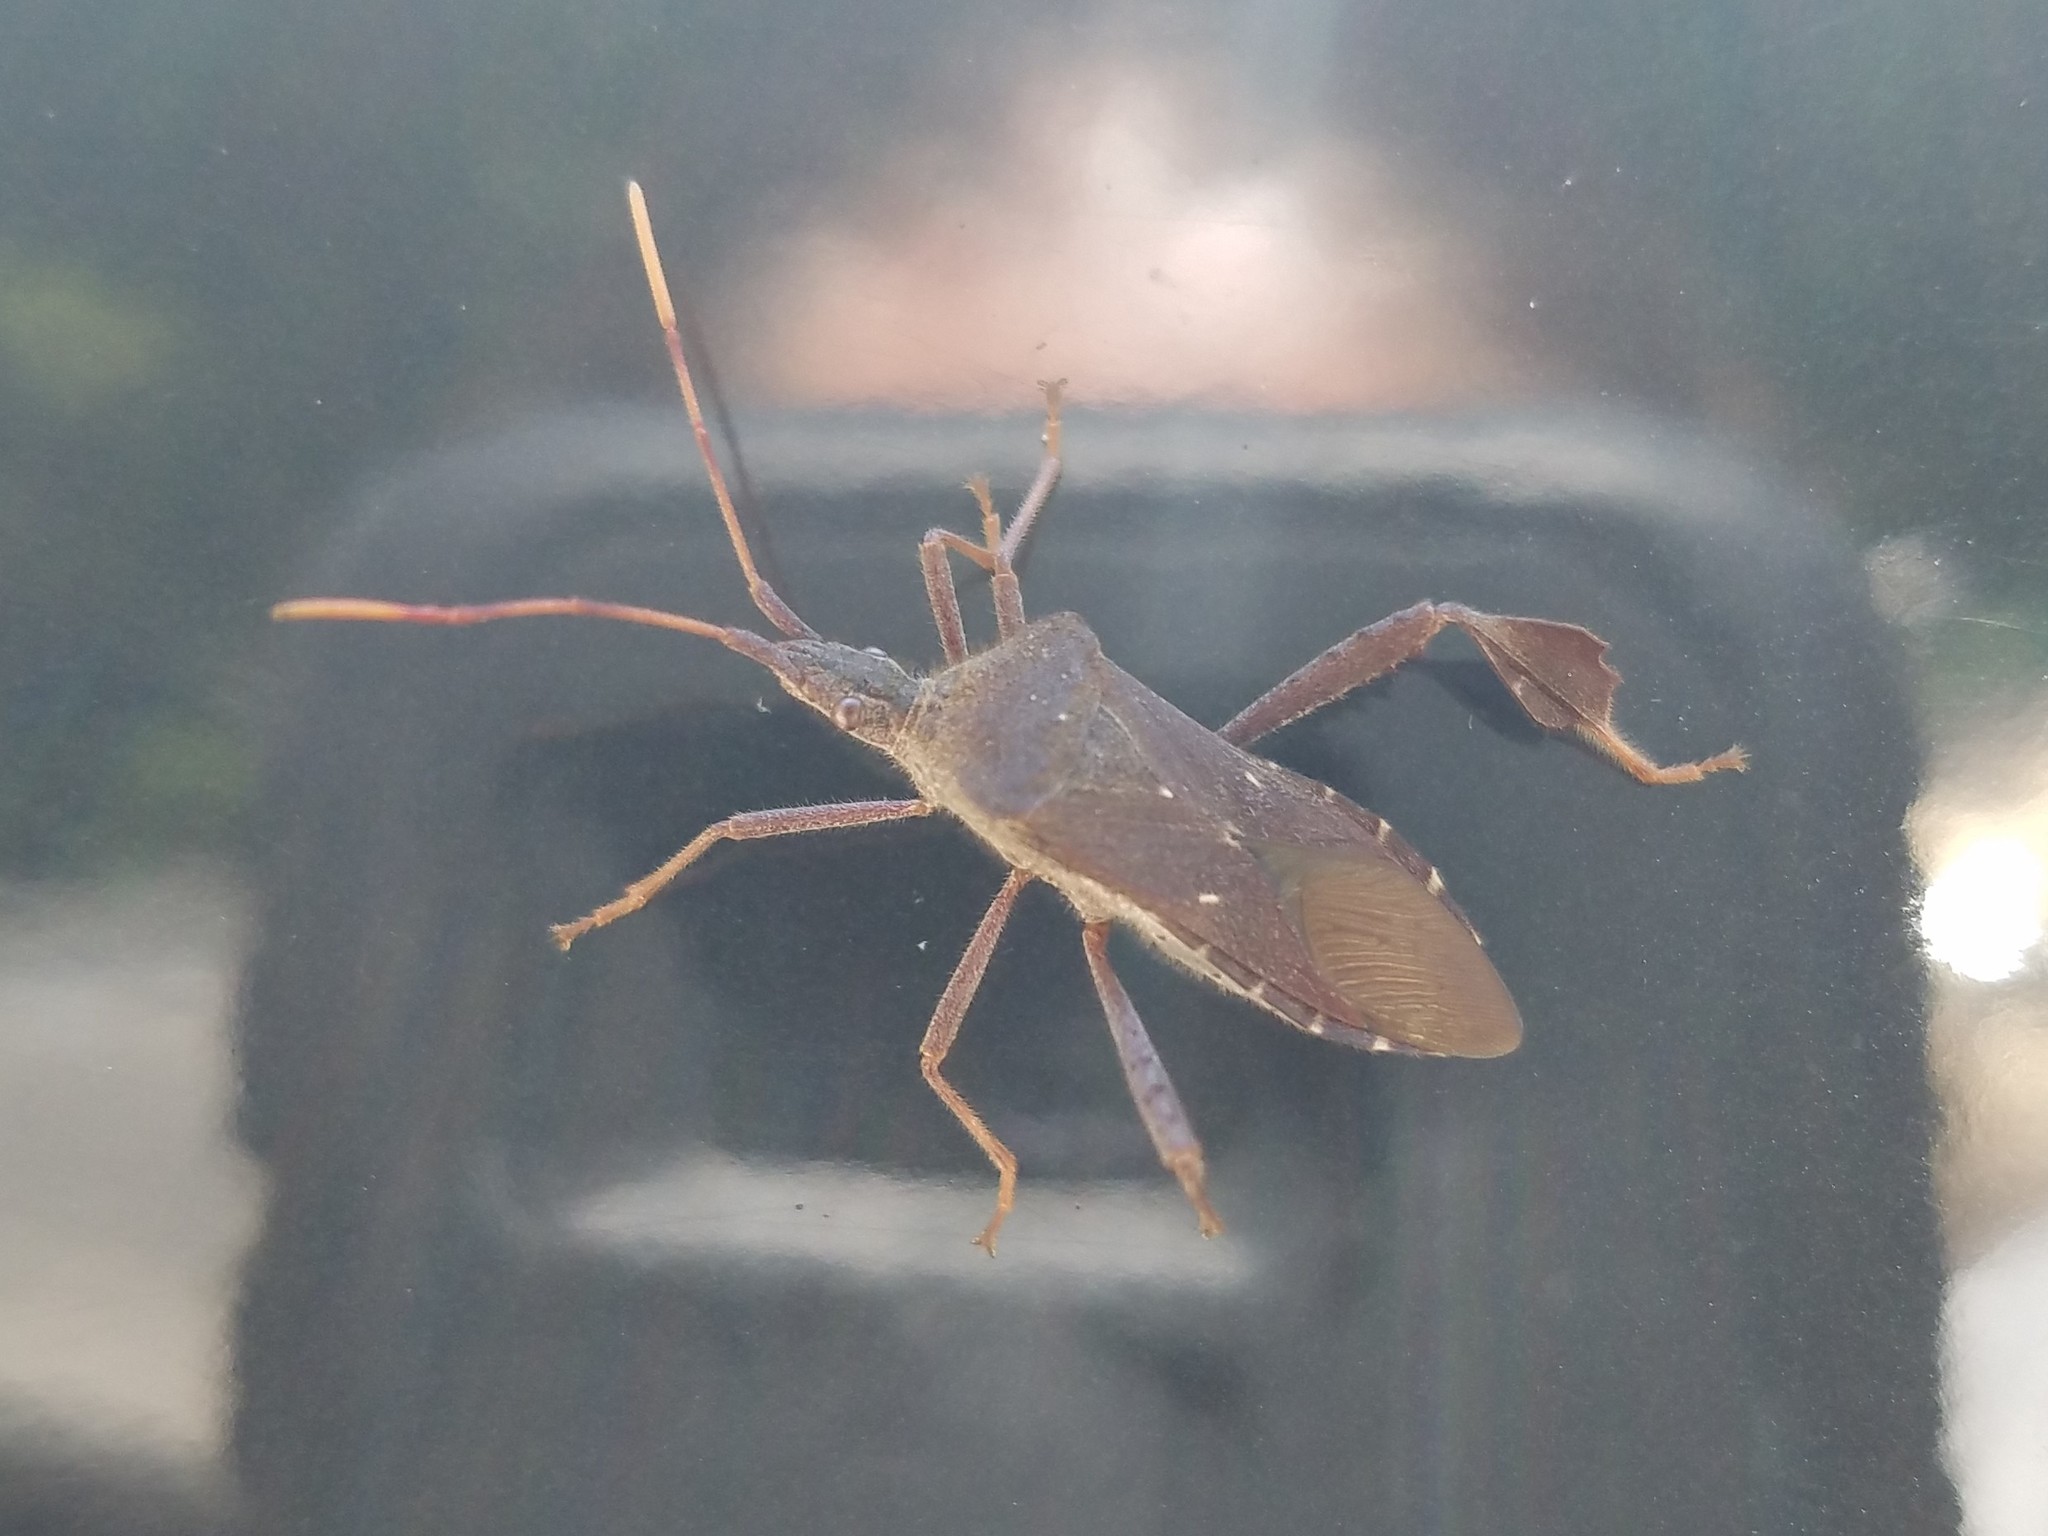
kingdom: Animalia
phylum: Arthropoda
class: Insecta
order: Hemiptera
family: Coreidae
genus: Leptoglossus
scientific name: Leptoglossus oppositus
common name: Northern leaf-footed bug
